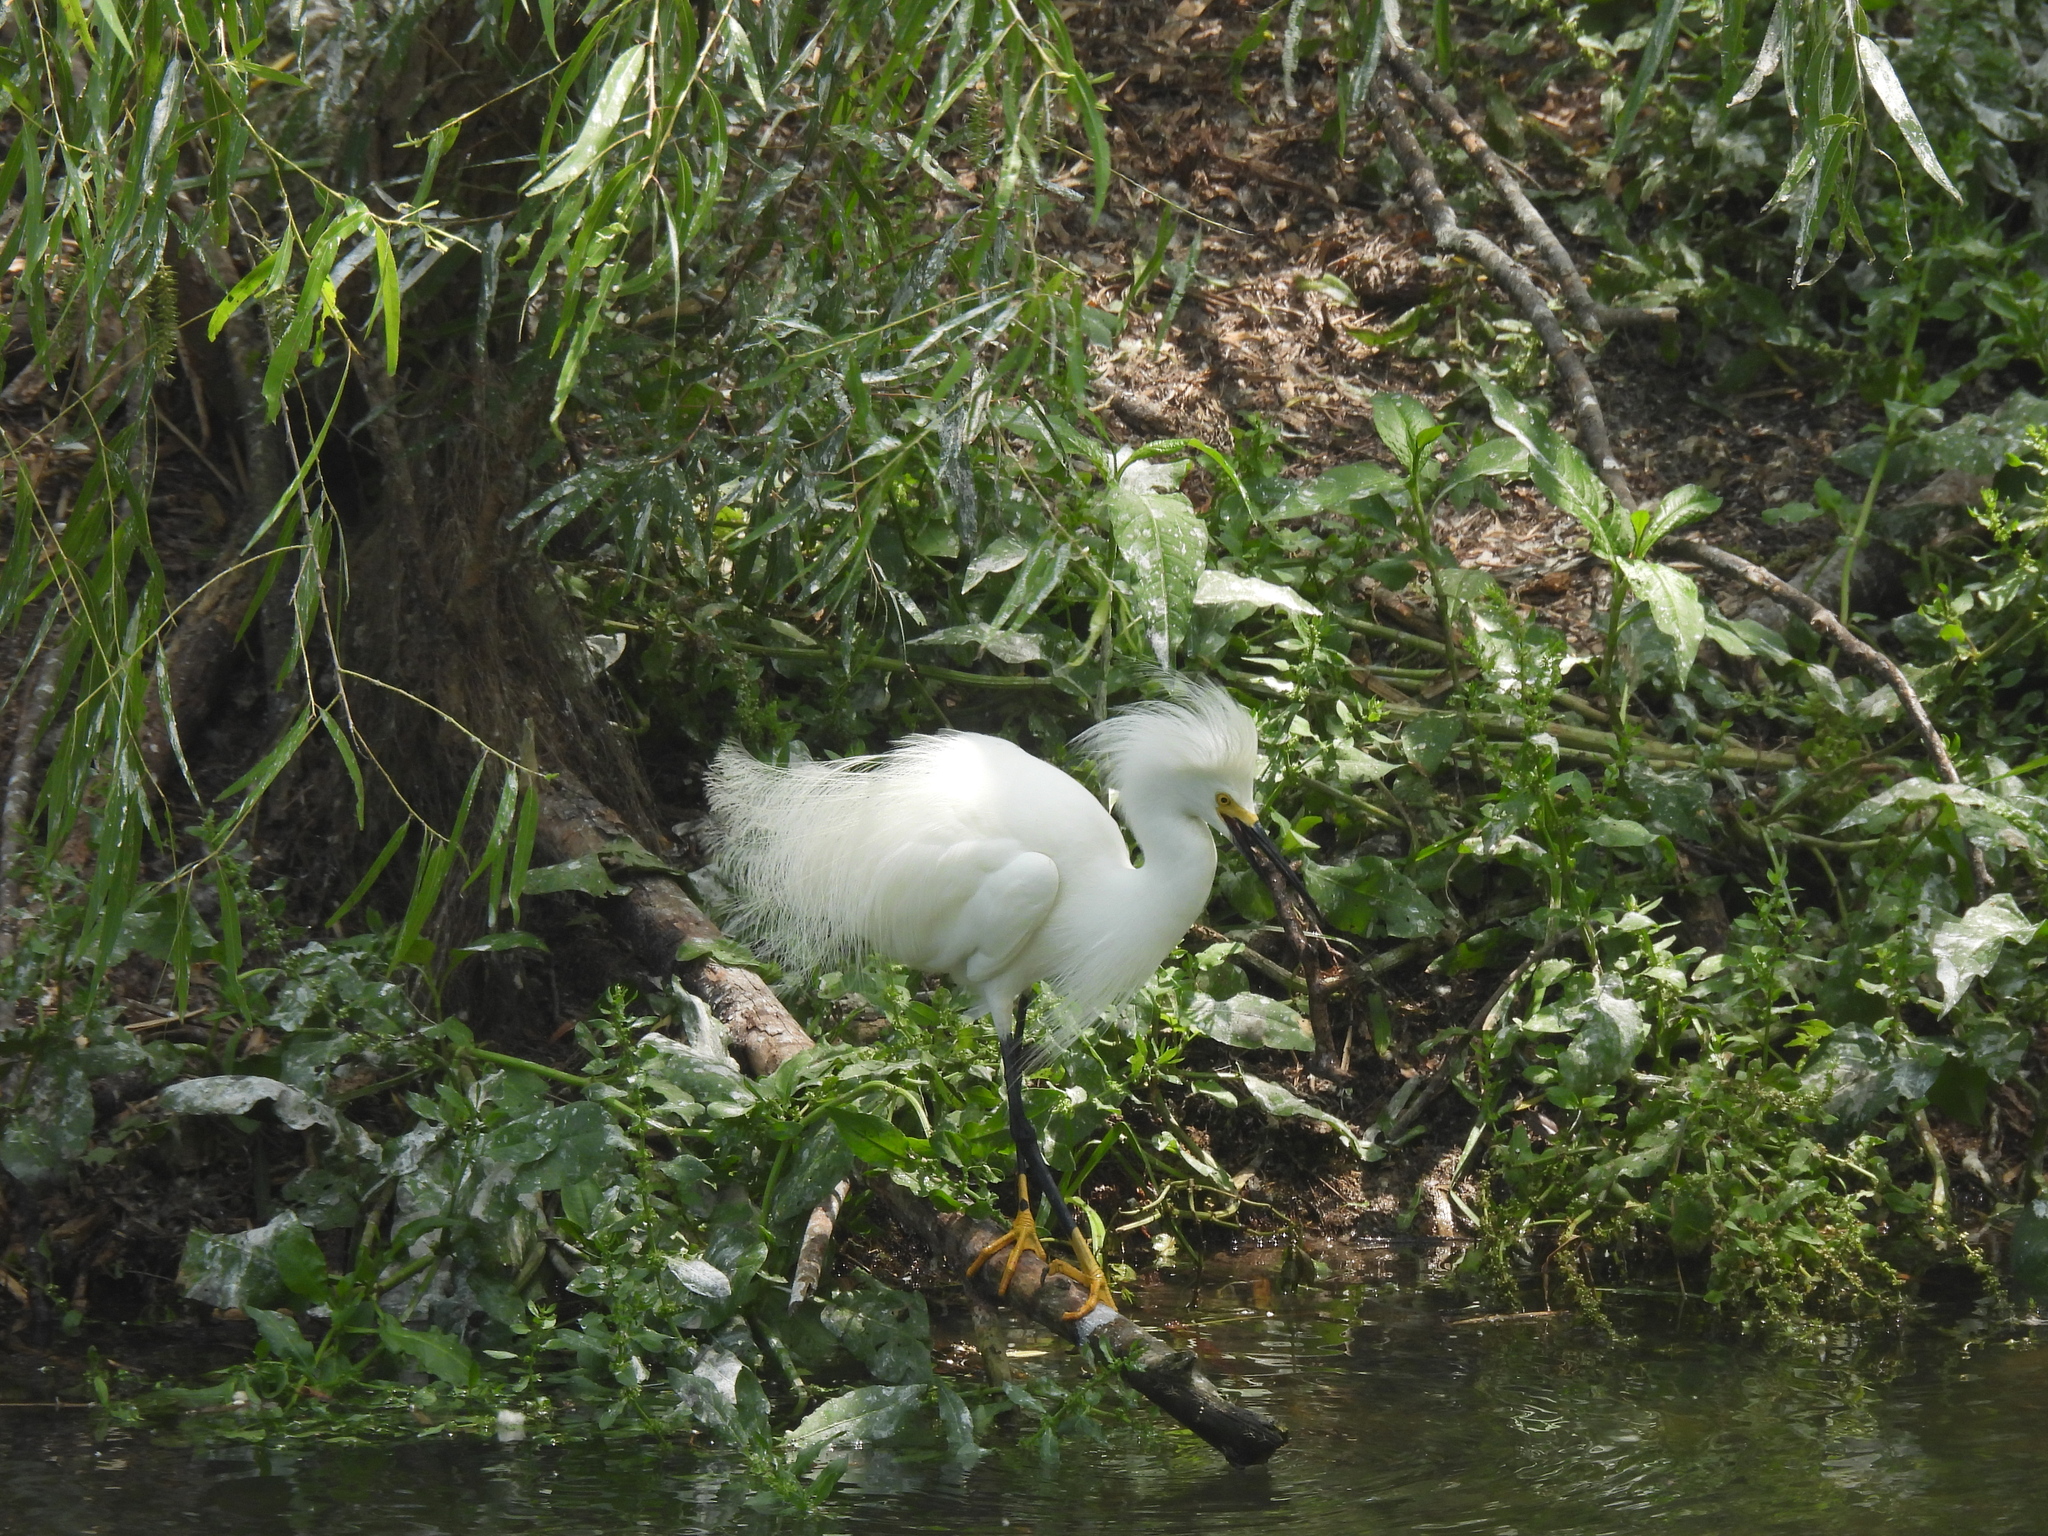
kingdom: Animalia
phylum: Chordata
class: Aves
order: Pelecaniformes
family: Ardeidae
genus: Egretta
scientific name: Egretta thula
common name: Snowy egret
